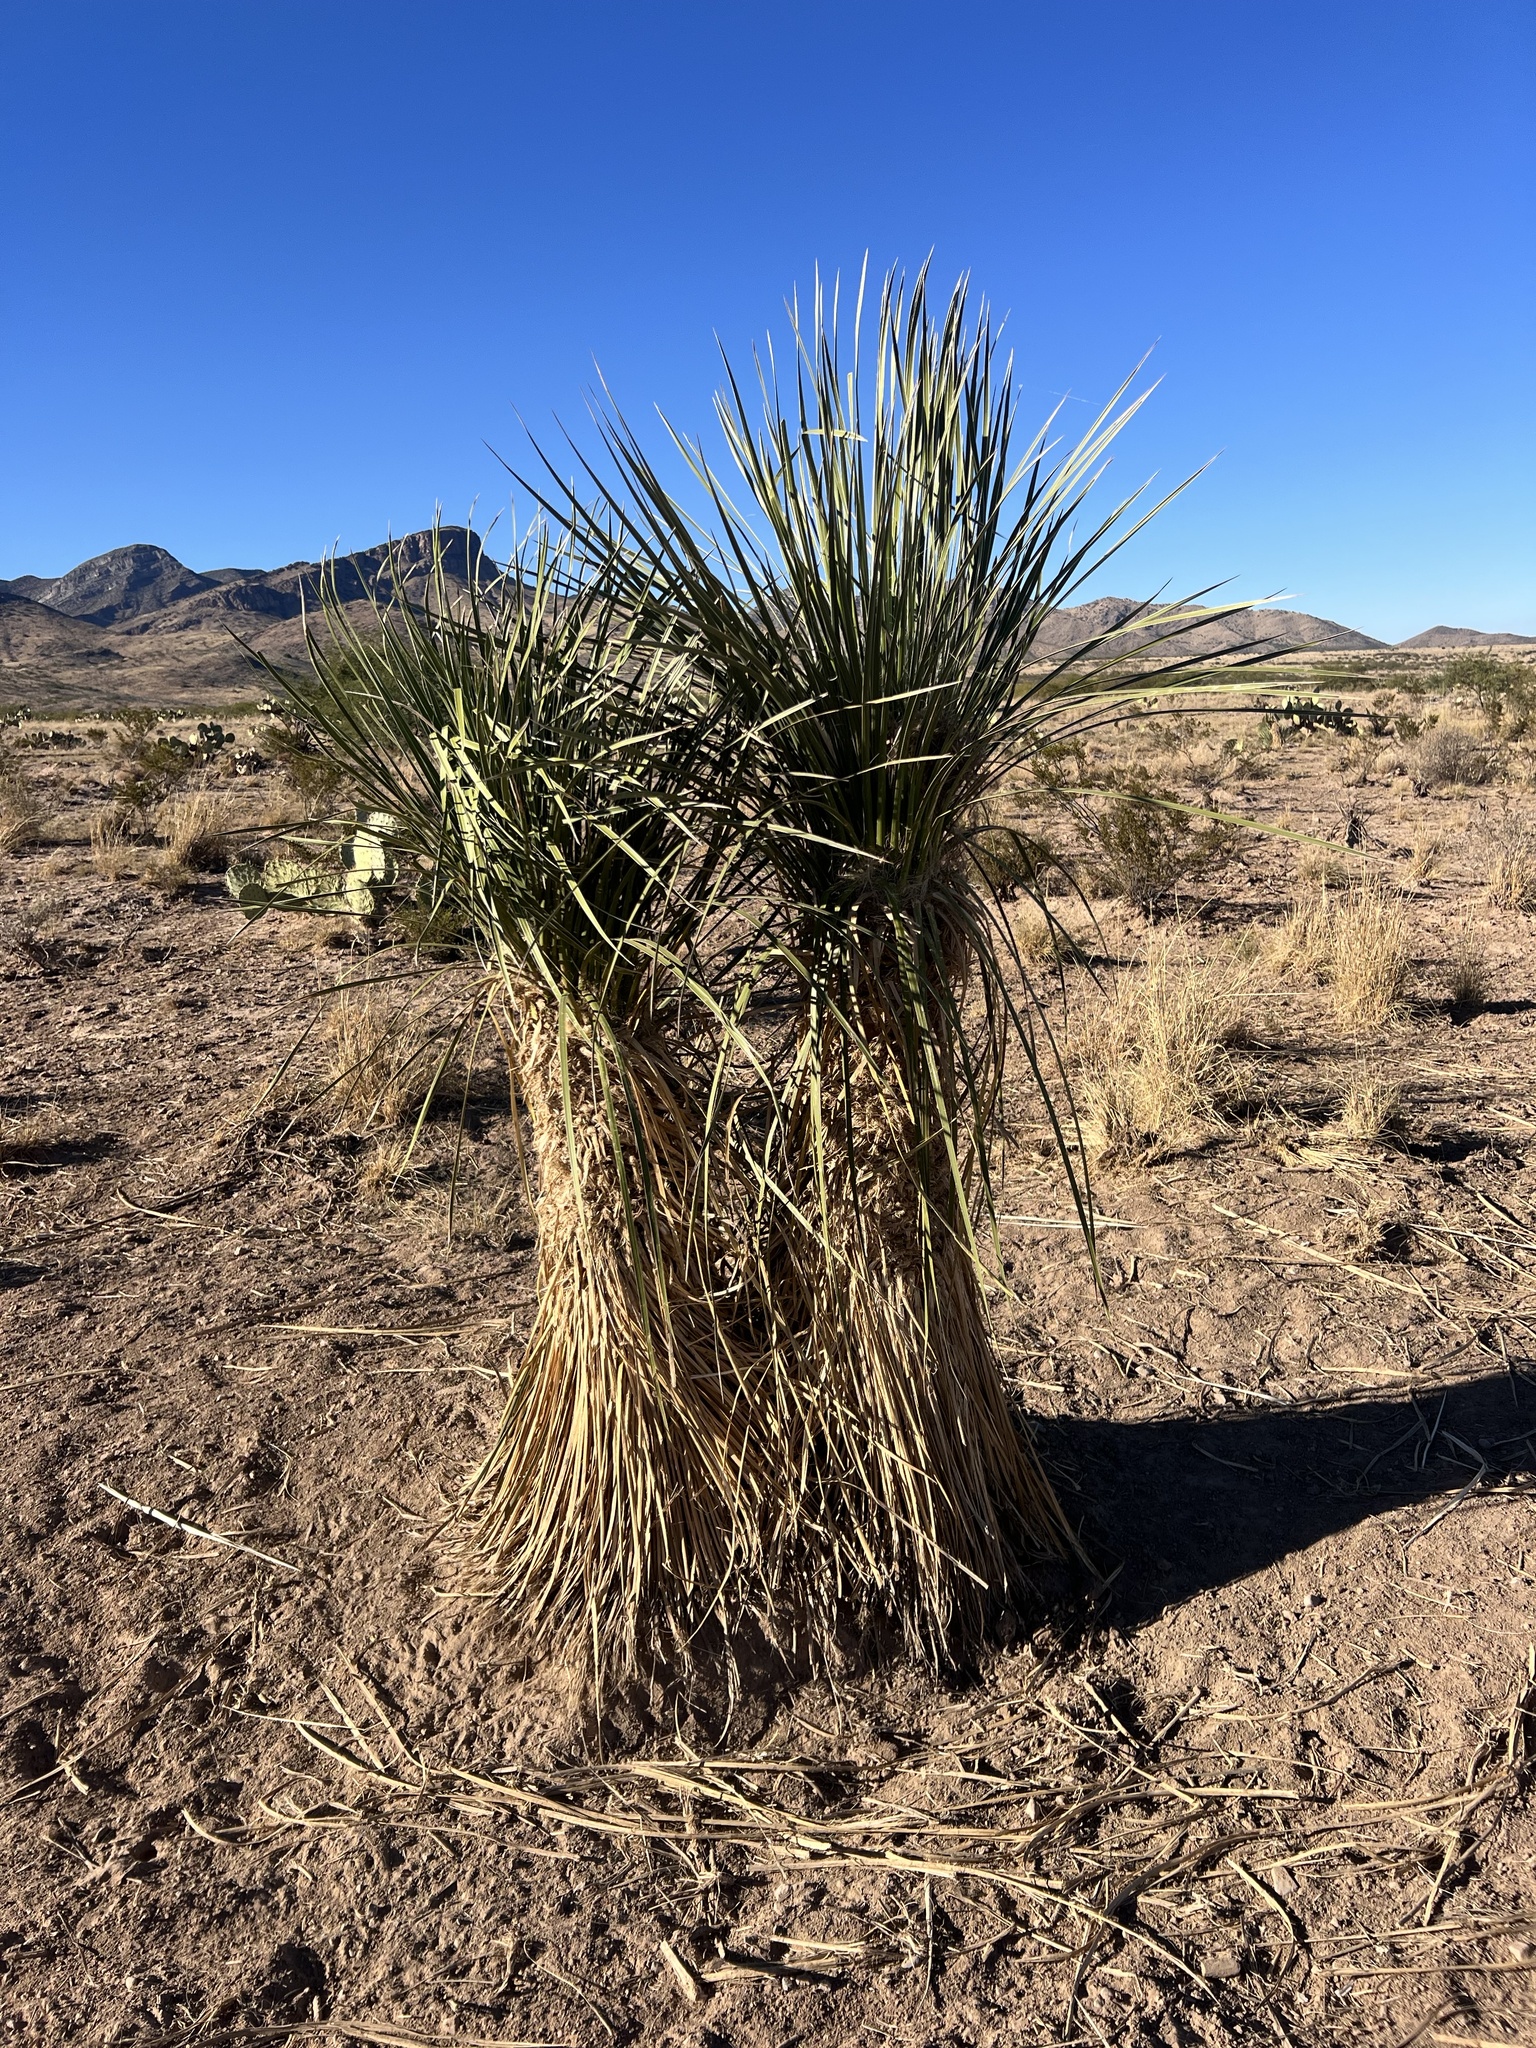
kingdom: Plantae
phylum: Tracheophyta
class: Liliopsida
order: Asparagales
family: Asparagaceae
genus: Yucca
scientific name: Yucca elata
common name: Palmella
